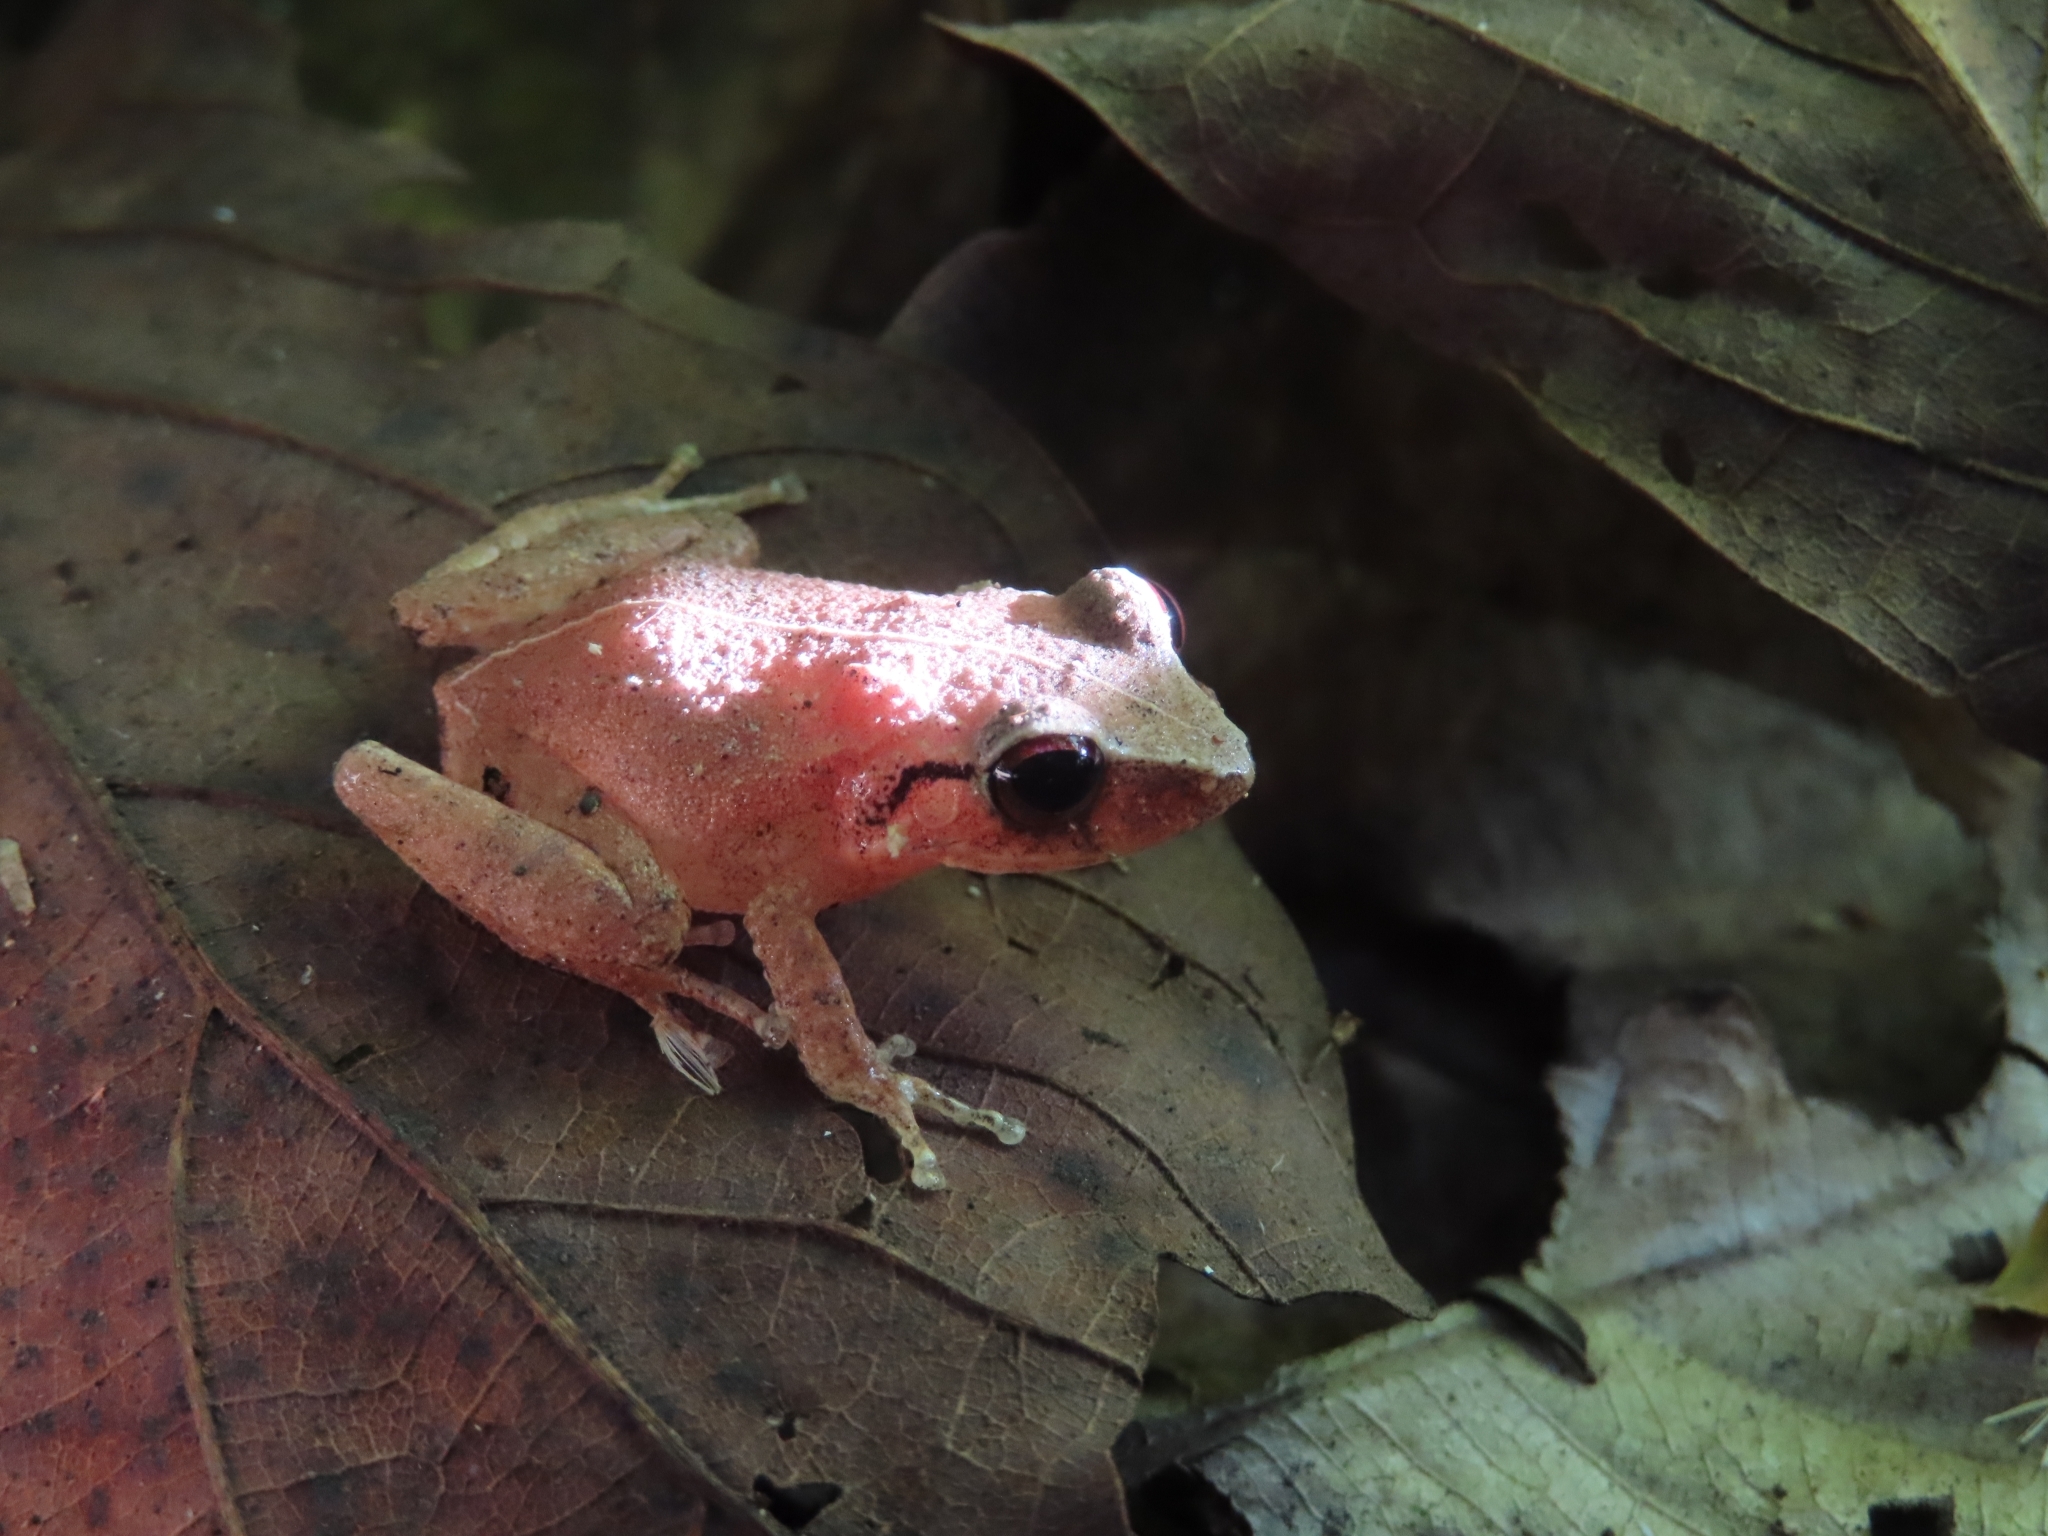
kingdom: Animalia
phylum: Chordata
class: Amphibia
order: Anura
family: Eleutherodactylidae
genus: Eleutherodactylus
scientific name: Eleutherodactylus antillensis
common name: Antillean coqui
